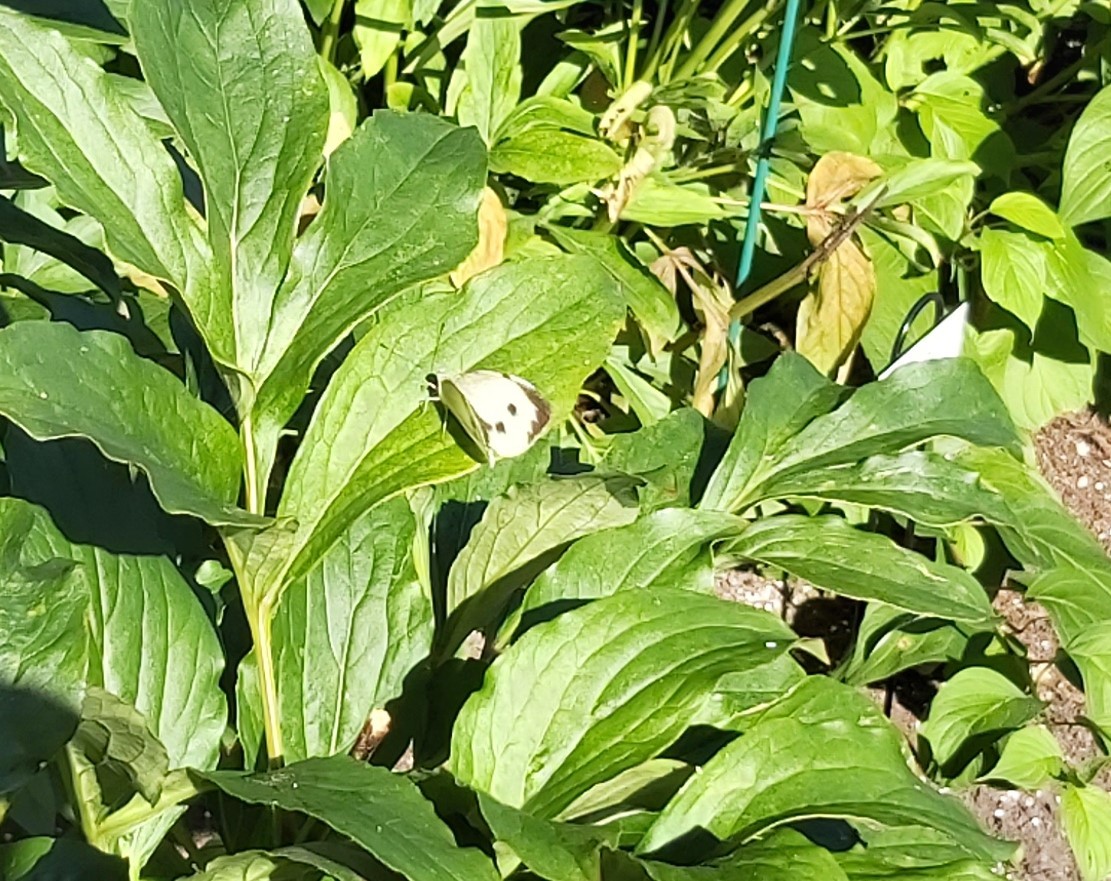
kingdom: Animalia
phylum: Arthropoda
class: Insecta
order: Lepidoptera
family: Pieridae
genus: Pieris
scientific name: Pieris brassicae
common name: Large white
